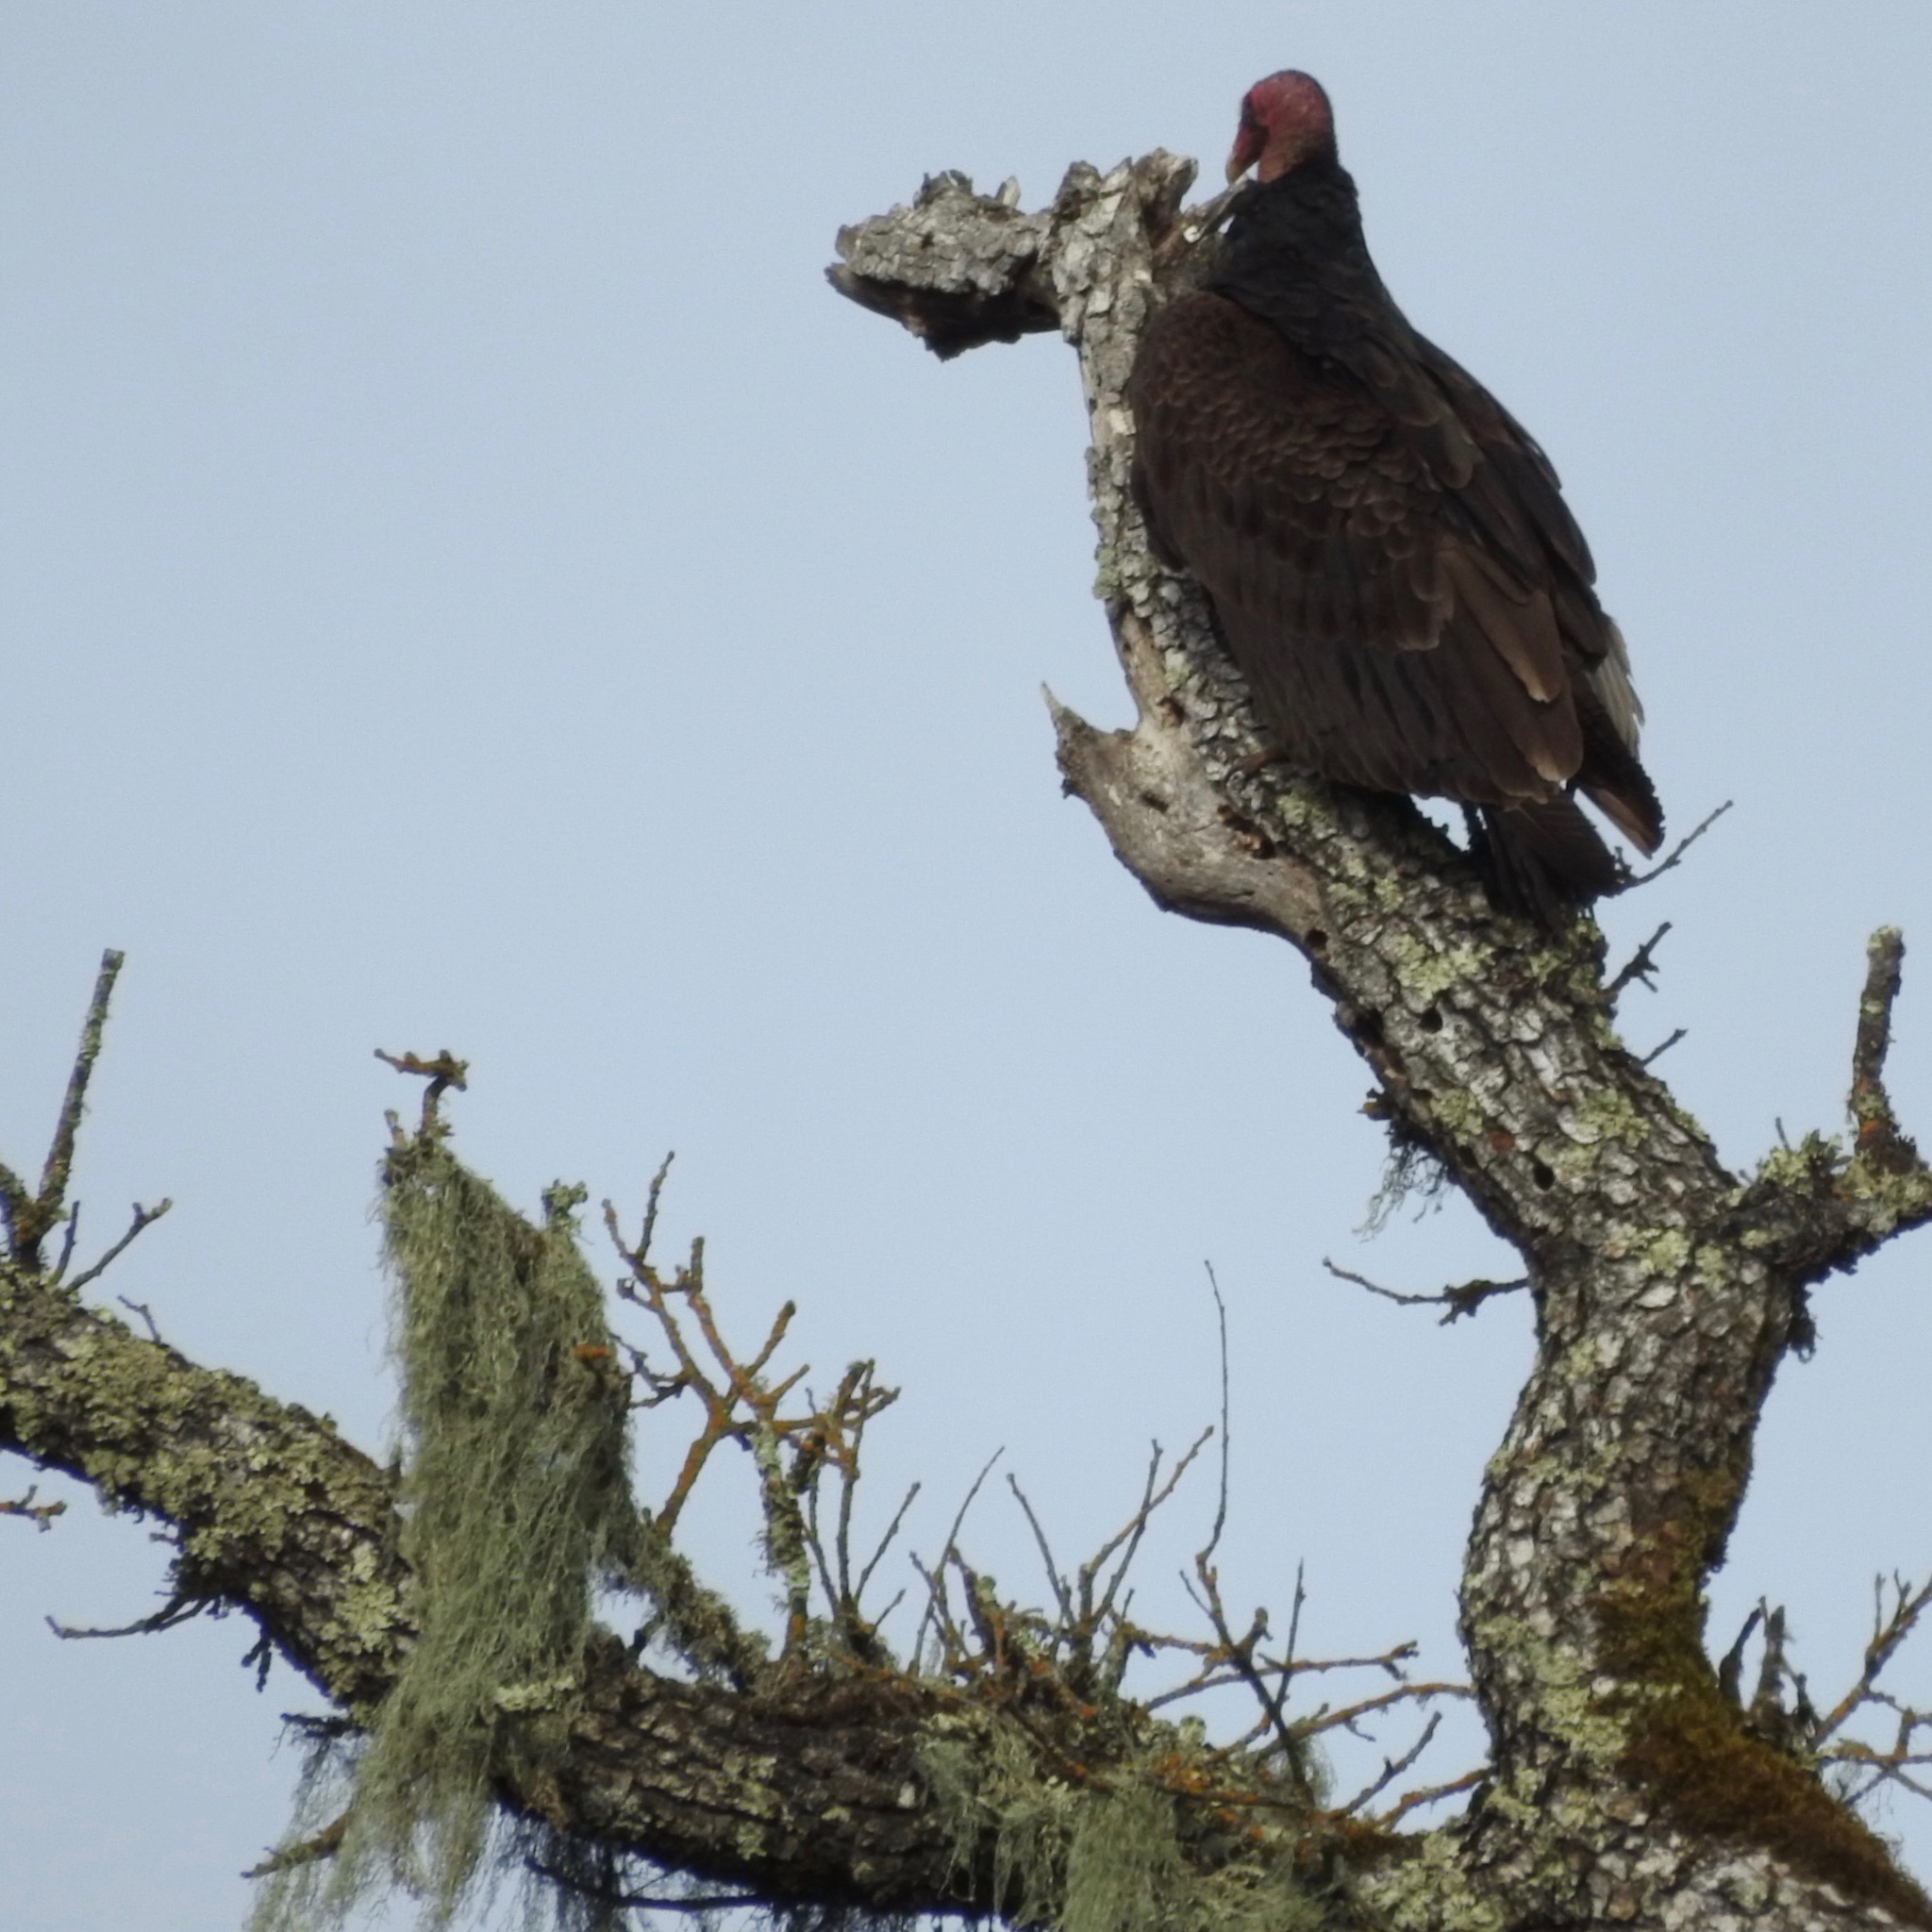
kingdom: Animalia
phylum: Chordata
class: Aves
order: Accipitriformes
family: Cathartidae
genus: Cathartes
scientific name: Cathartes aura
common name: Turkey vulture
